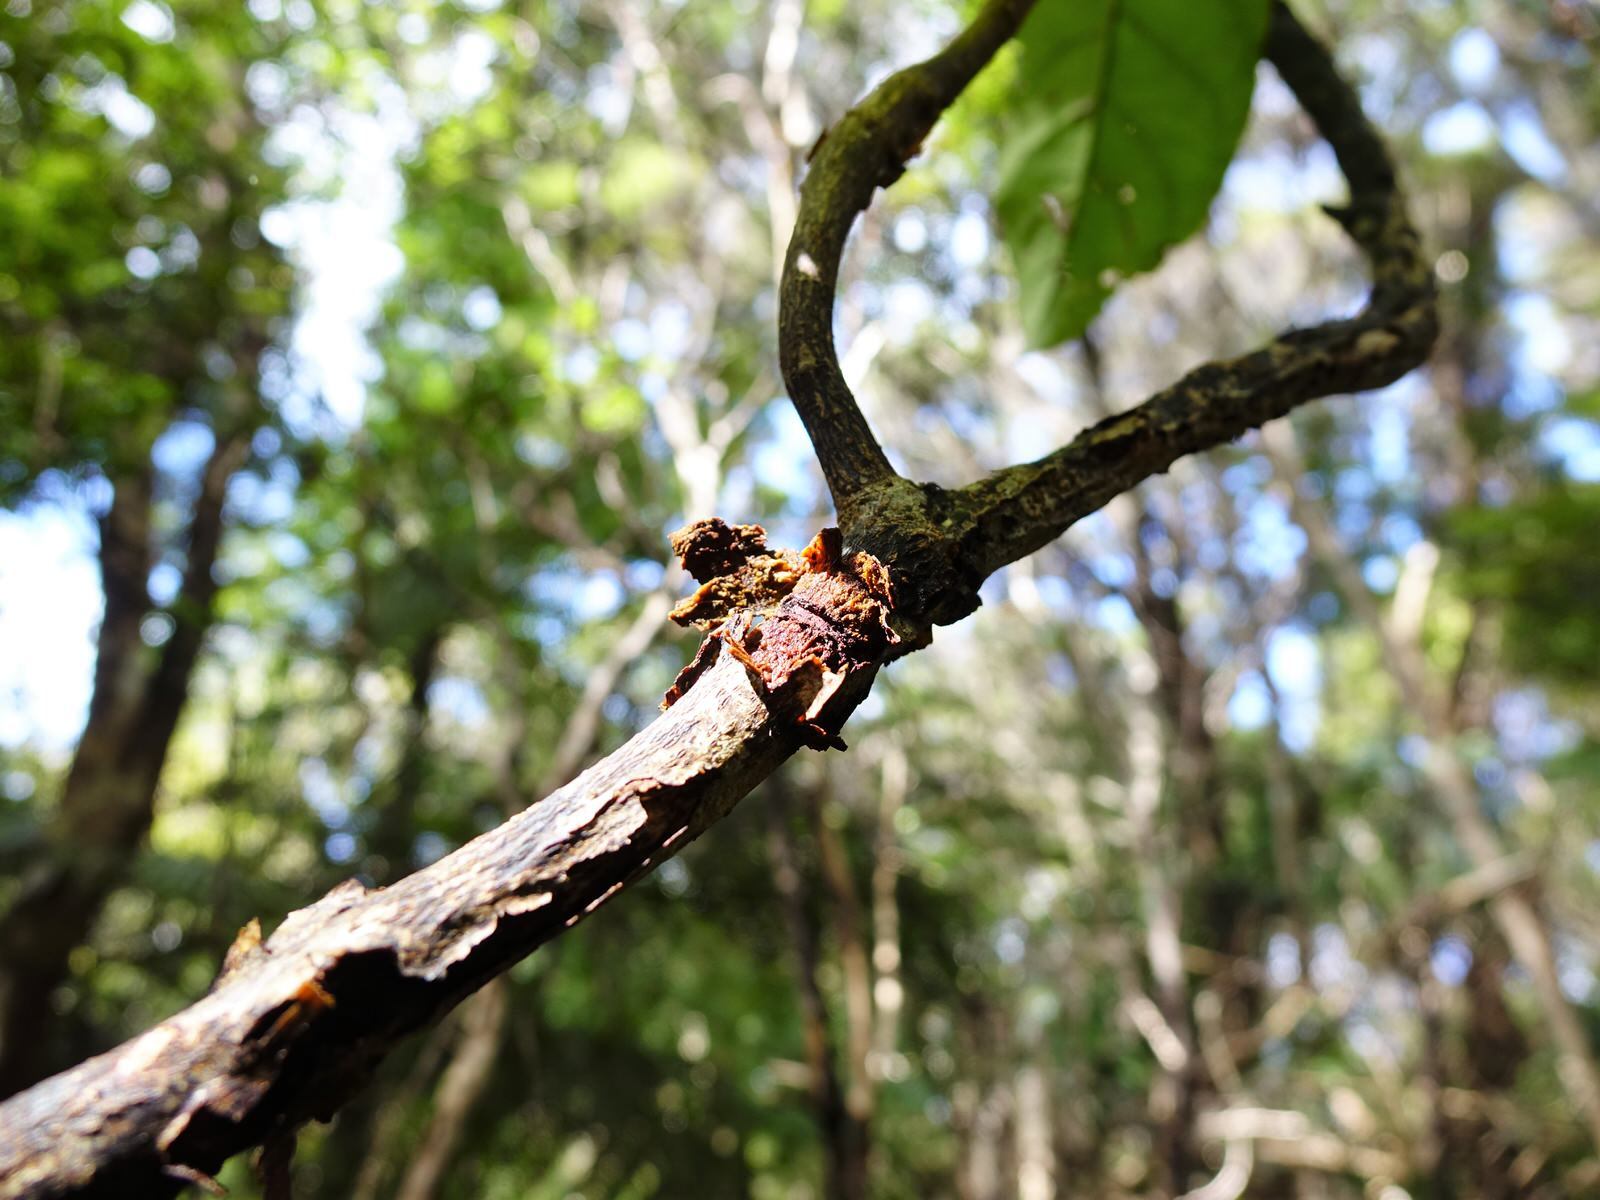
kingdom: Plantae
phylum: Tracheophyta
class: Magnoliopsida
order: Gentianales
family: Rubiaceae
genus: Coprosma
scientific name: Coprosma autumnalis
